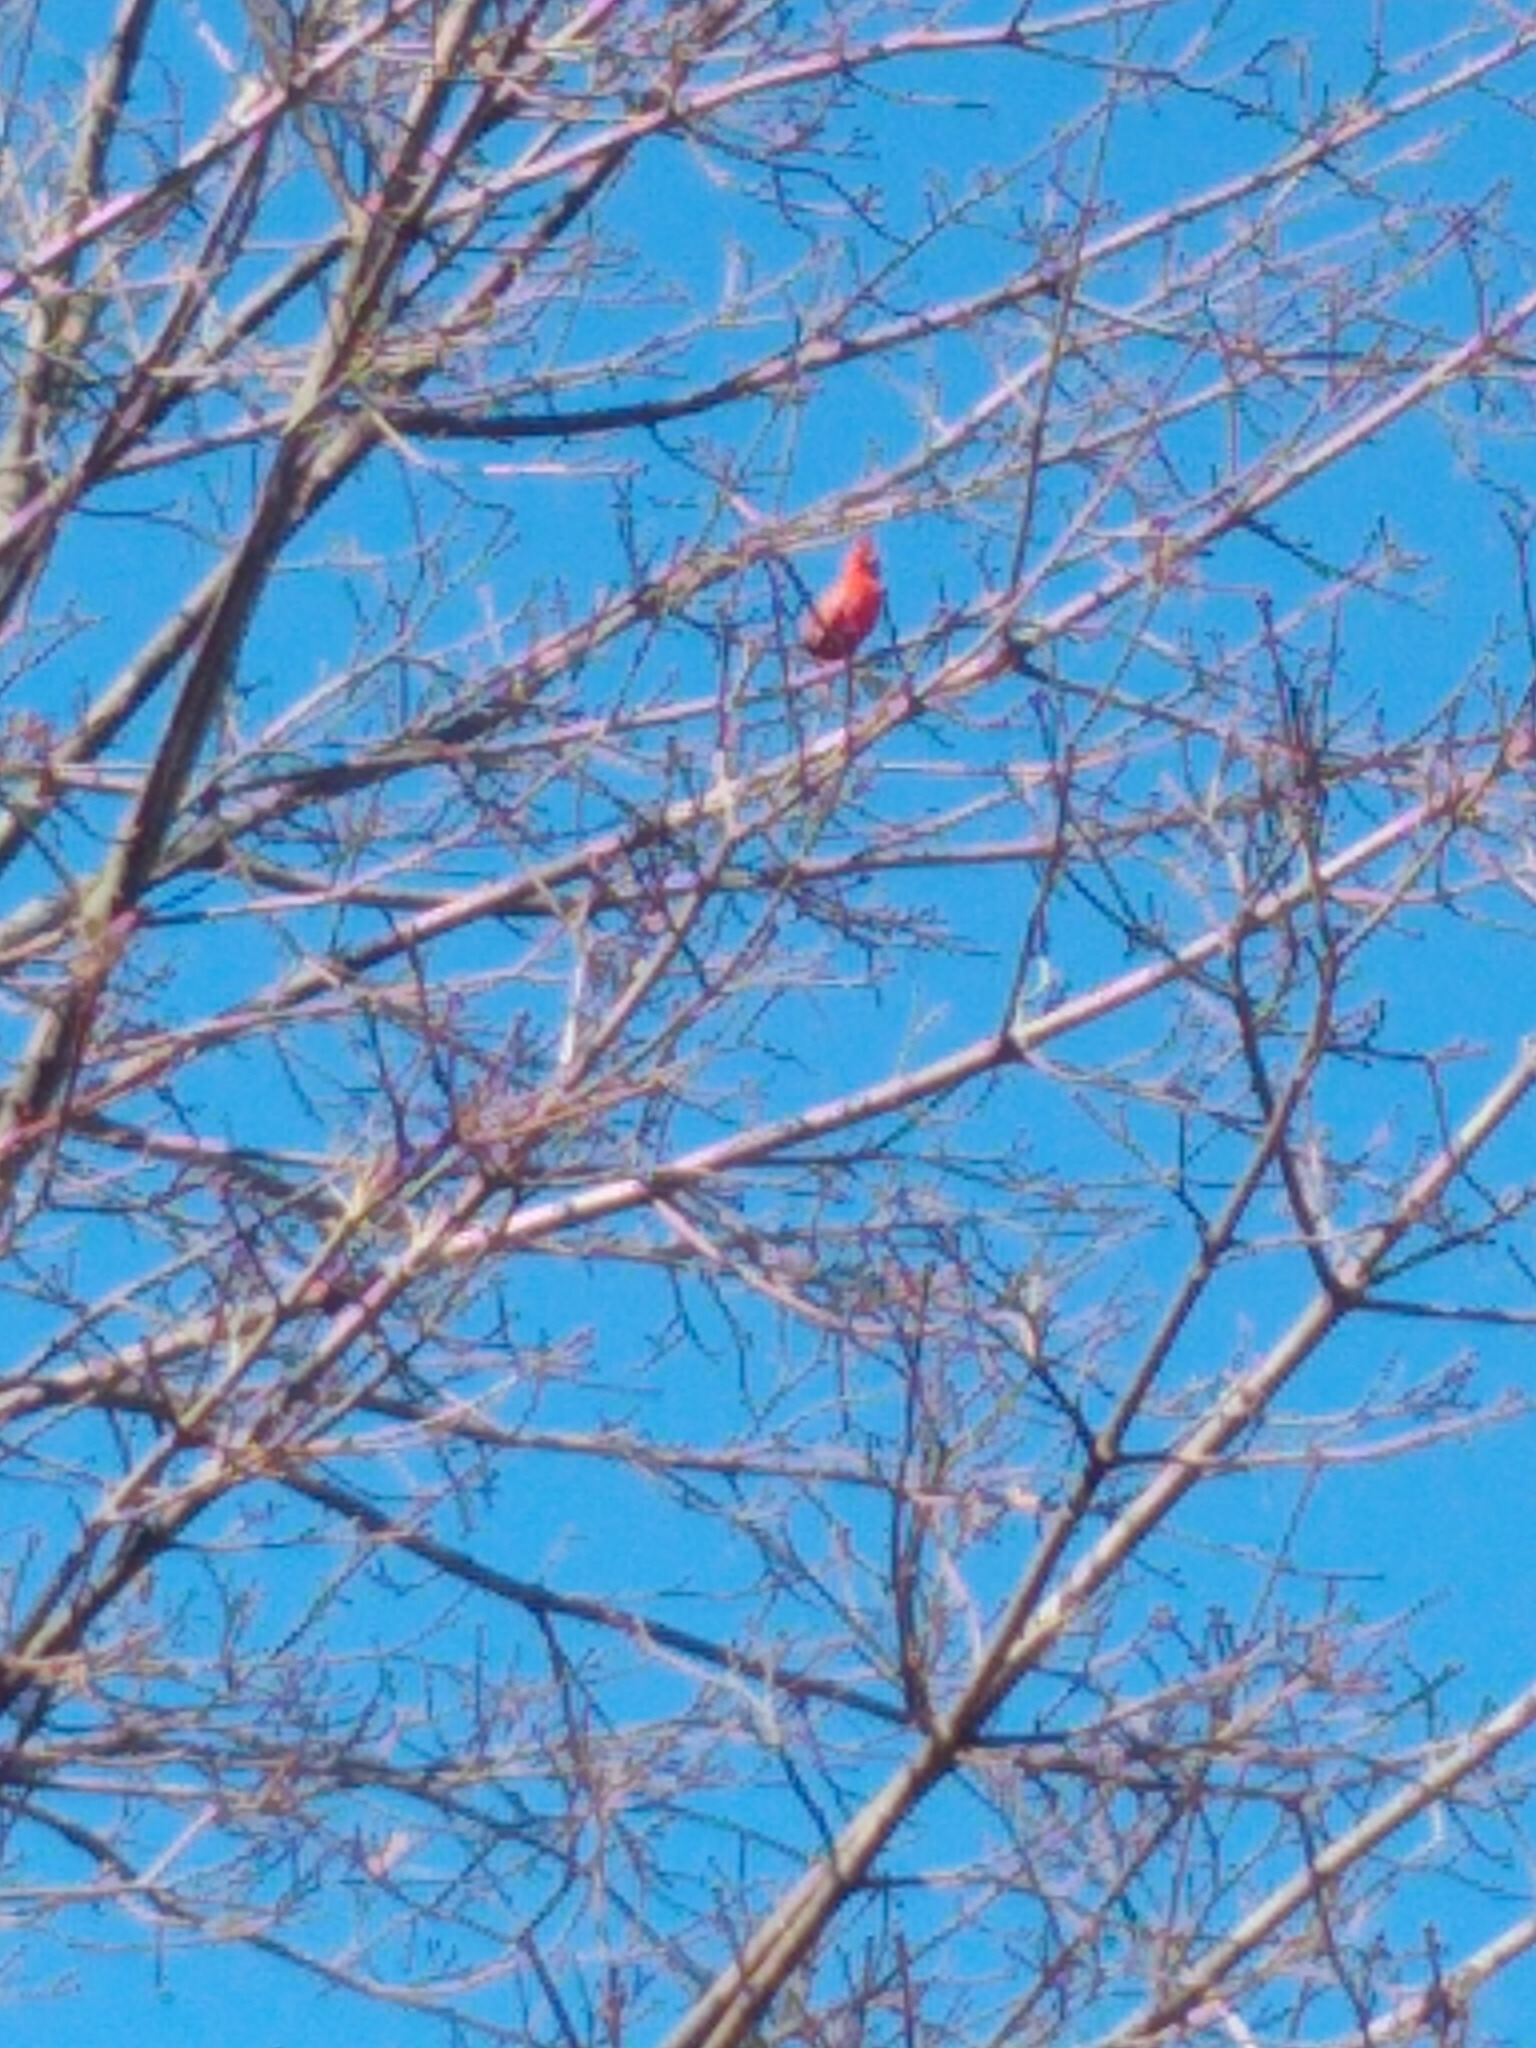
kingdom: Animalia
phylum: Chordata
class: Aves
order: Passeriformes
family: Cardinalidae
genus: Cardinalis
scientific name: Cardinalis cardinalis
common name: Northern cardinal
